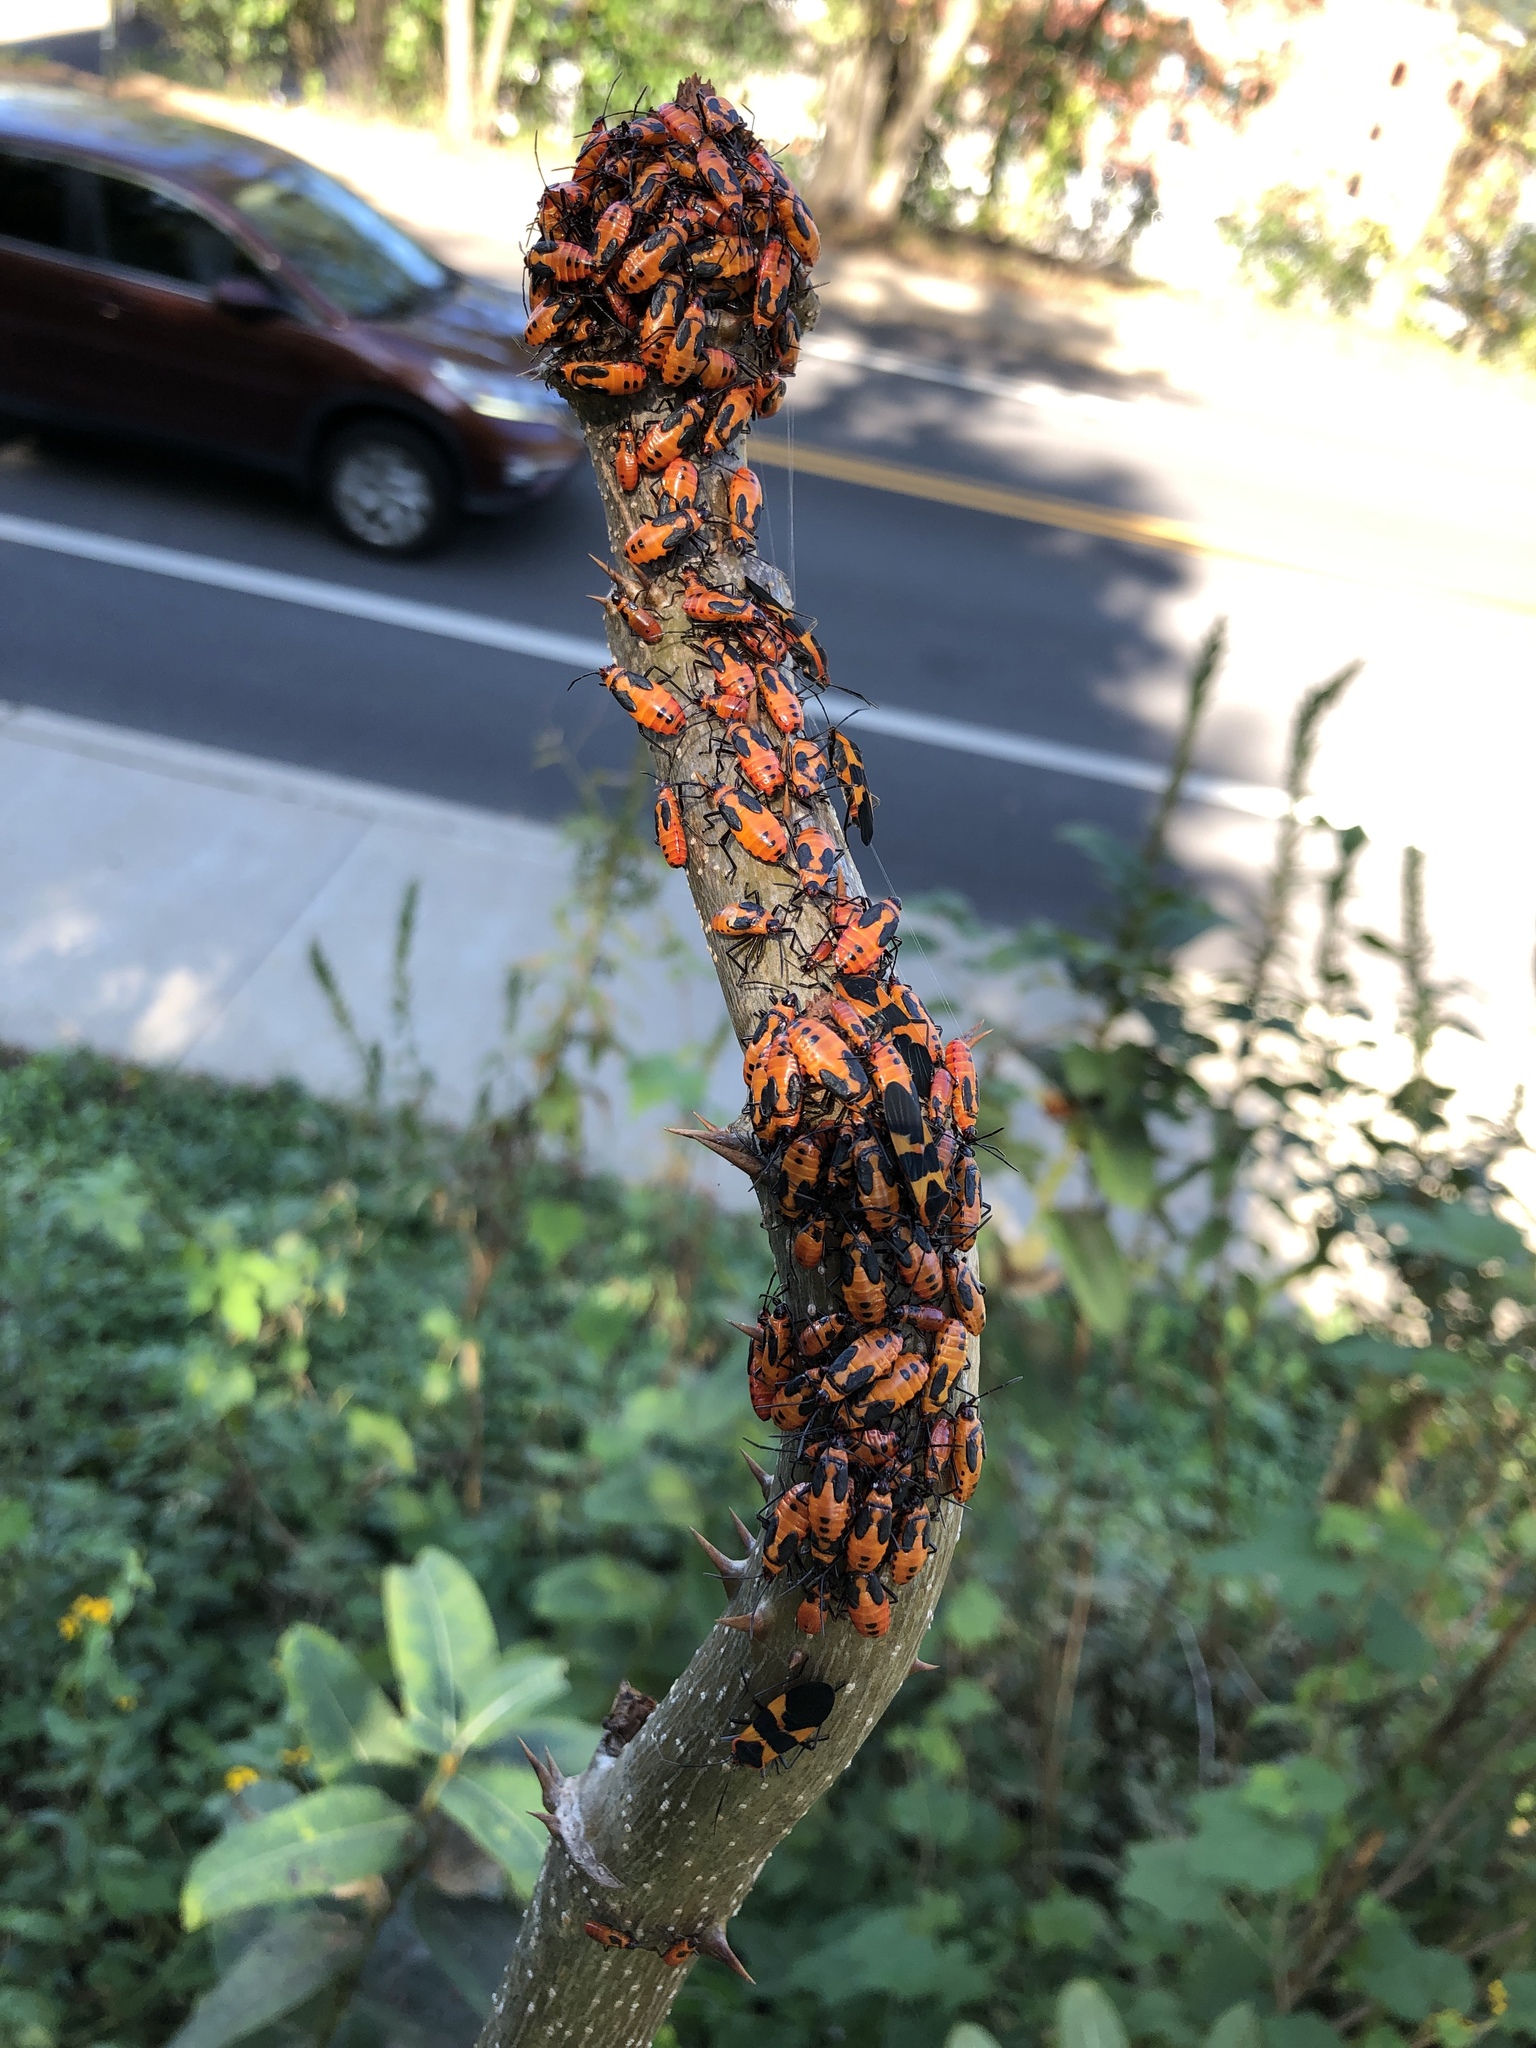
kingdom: Animalia
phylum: Arthropoda
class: Insecta
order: Hemiptera
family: Lygaeidae
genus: Oncopeltus
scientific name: Oncopeltus fasciatus
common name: Large milkweed bug
